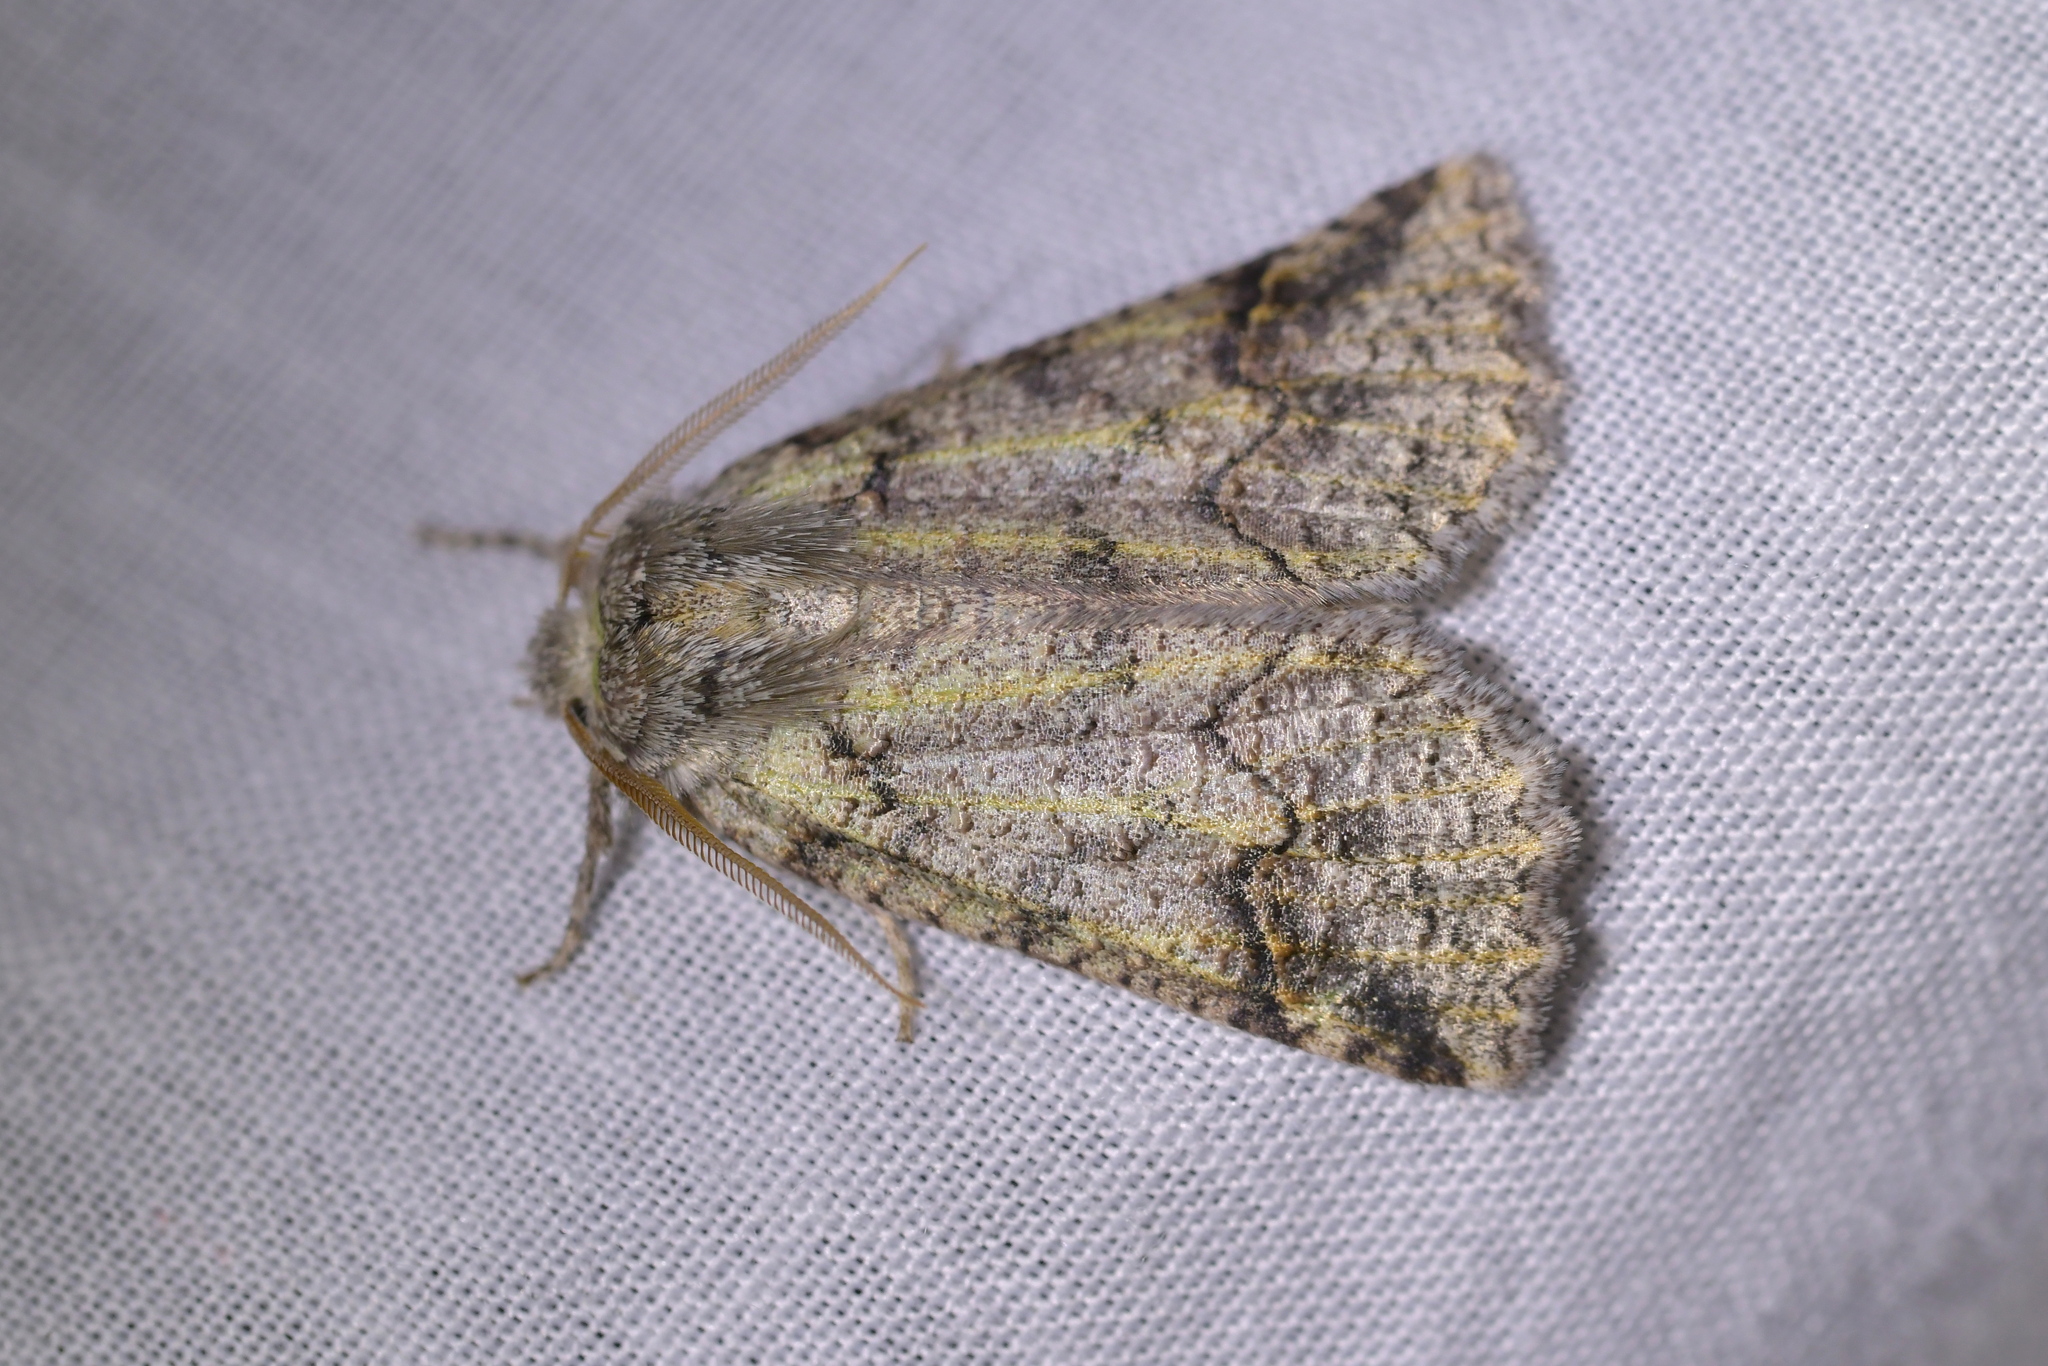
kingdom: Animalia
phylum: Arthropoda
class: Insecta
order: Lepidoptera
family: Geometridae
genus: Declana
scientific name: Declana floccosa
